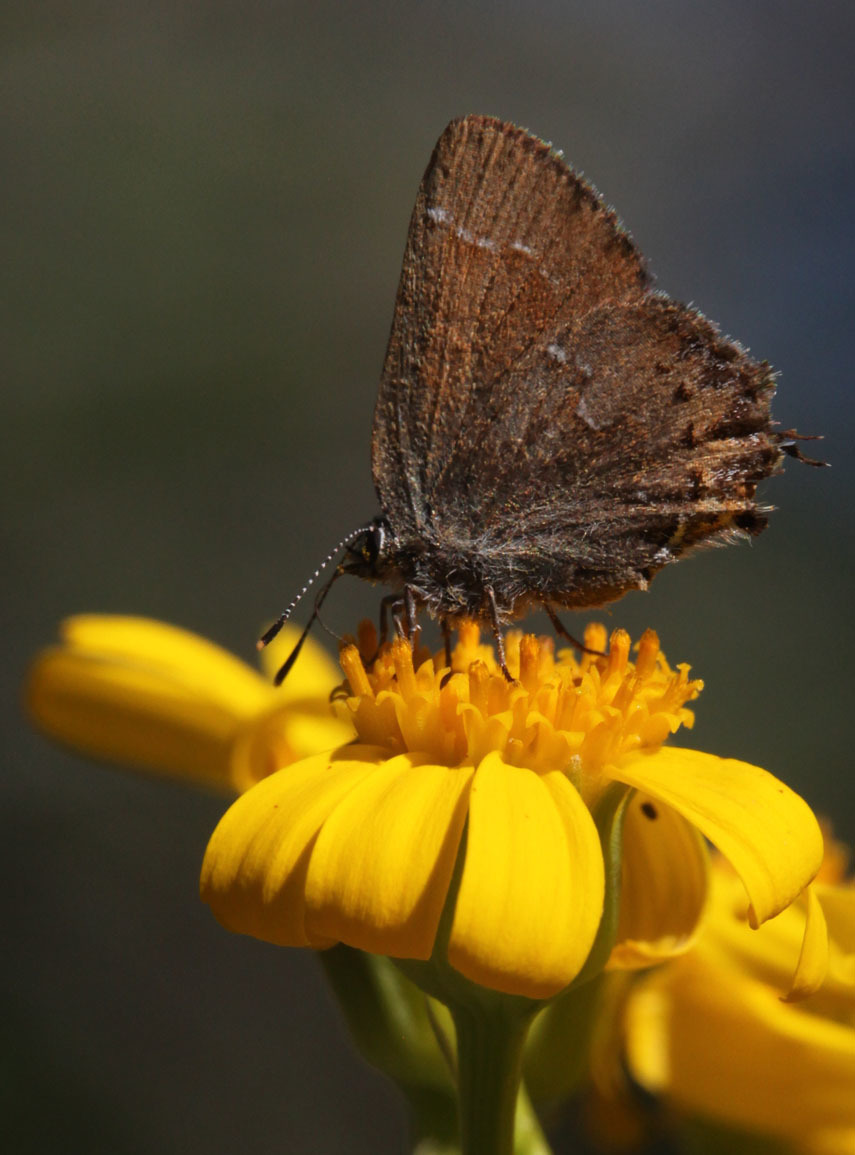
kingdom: Animalia
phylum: Arthropoda
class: Insecta
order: Lepidoptera
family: Lycaenidae
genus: Mitoura
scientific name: Mitoura gryneus
